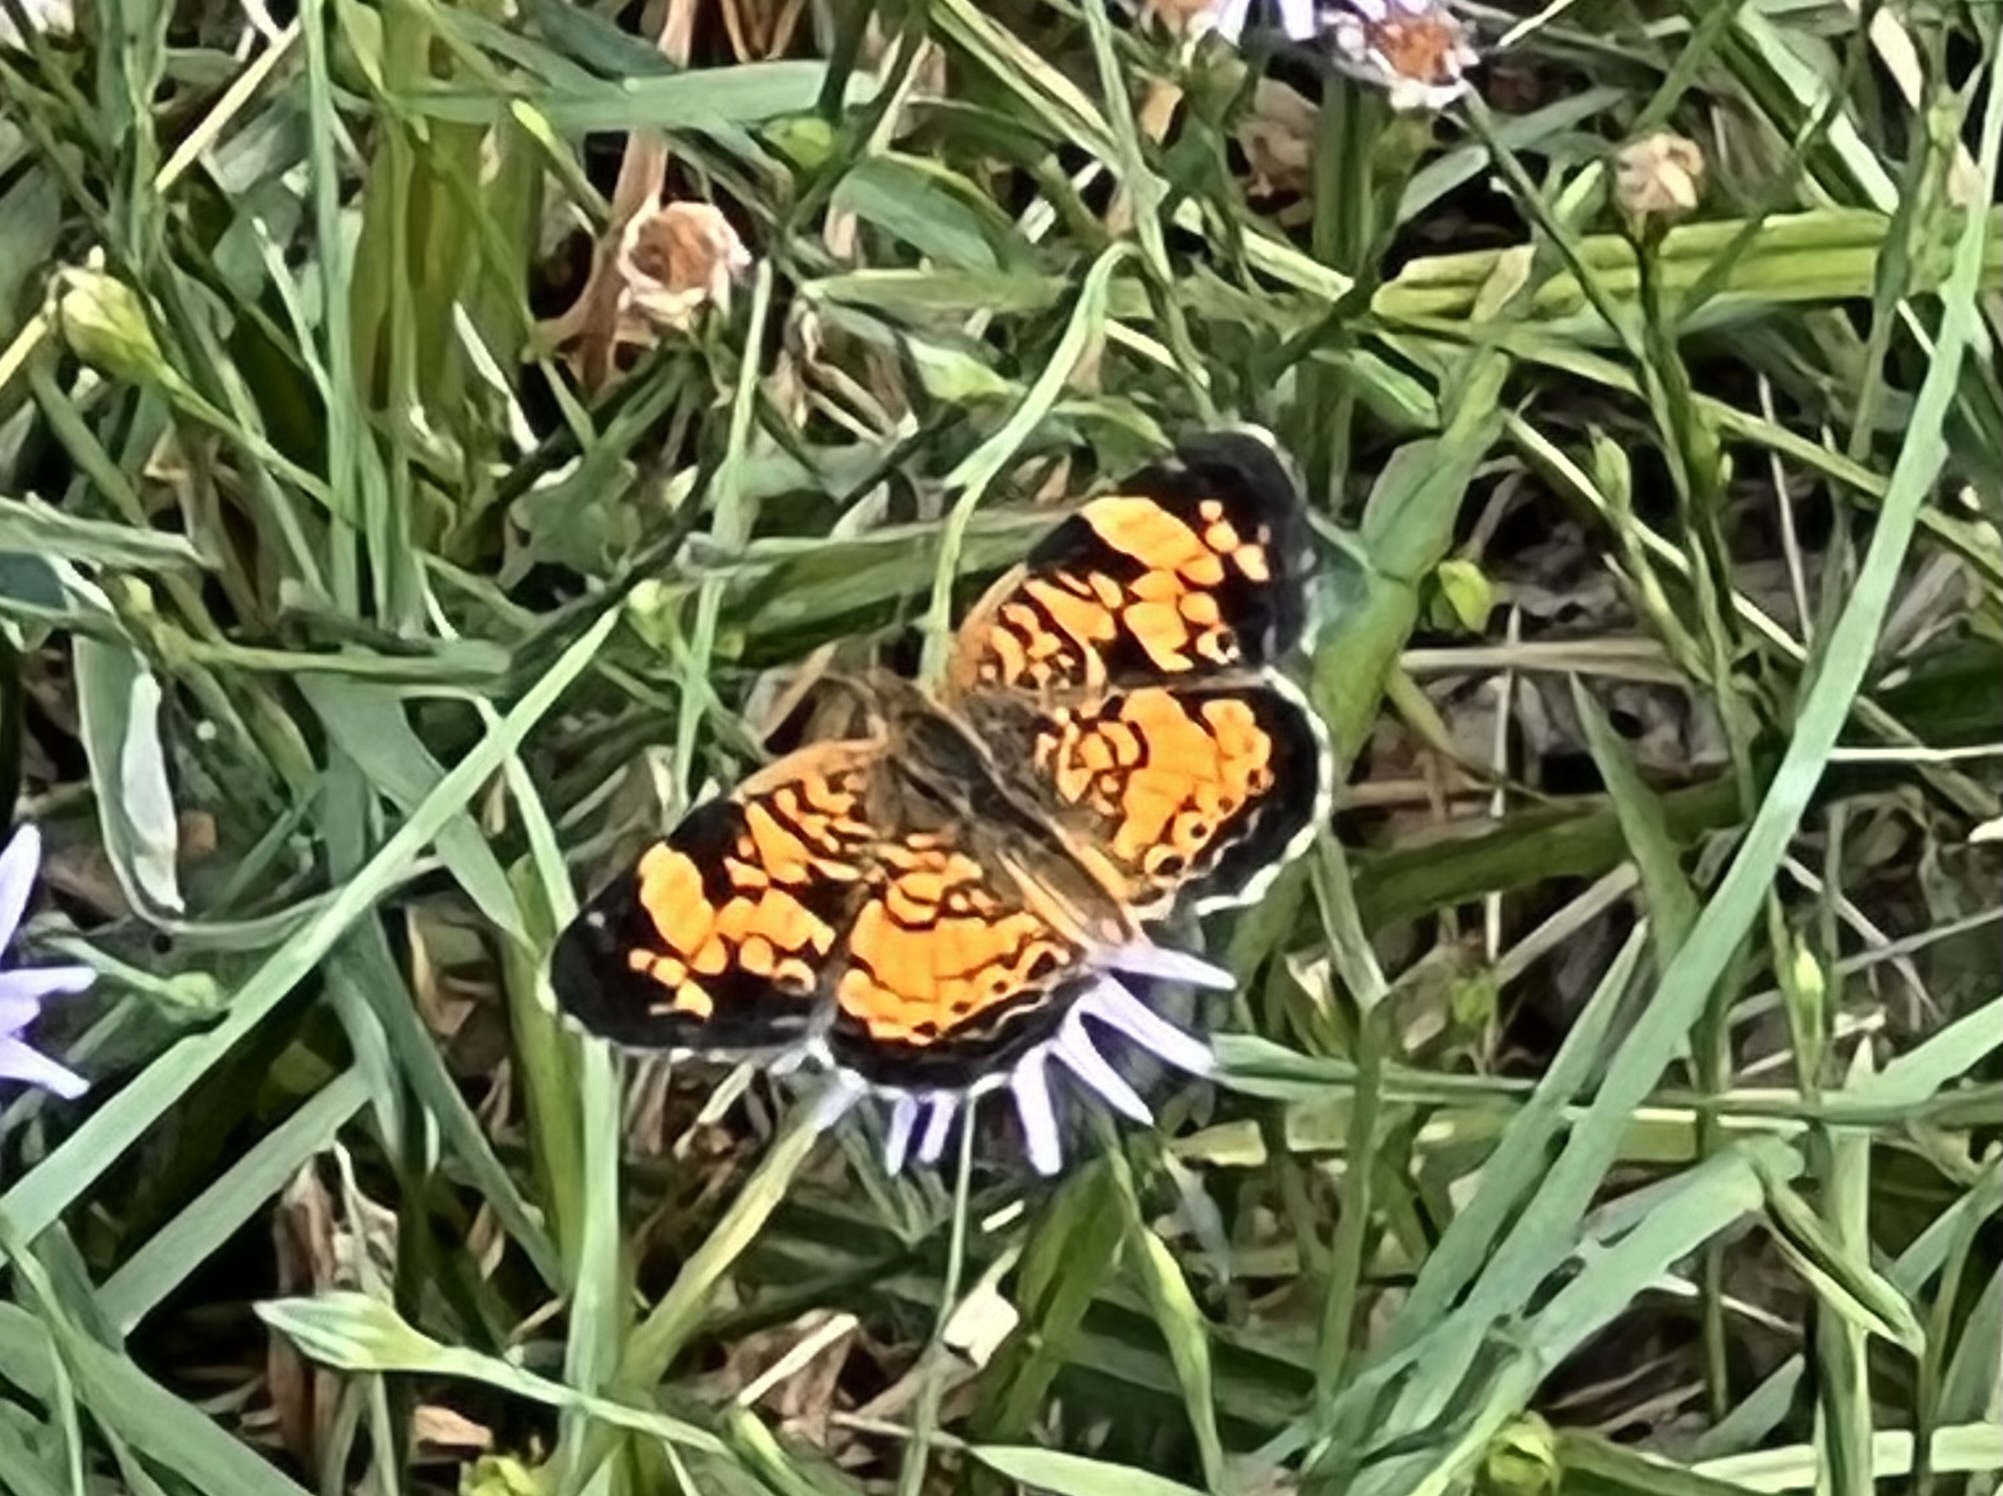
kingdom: Animalia
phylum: Arthropoda
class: Insecta
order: Lepidoptera
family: Nymphalidae
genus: Phyciodes
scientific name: Phyciodes tharos
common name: Pearl crescent
